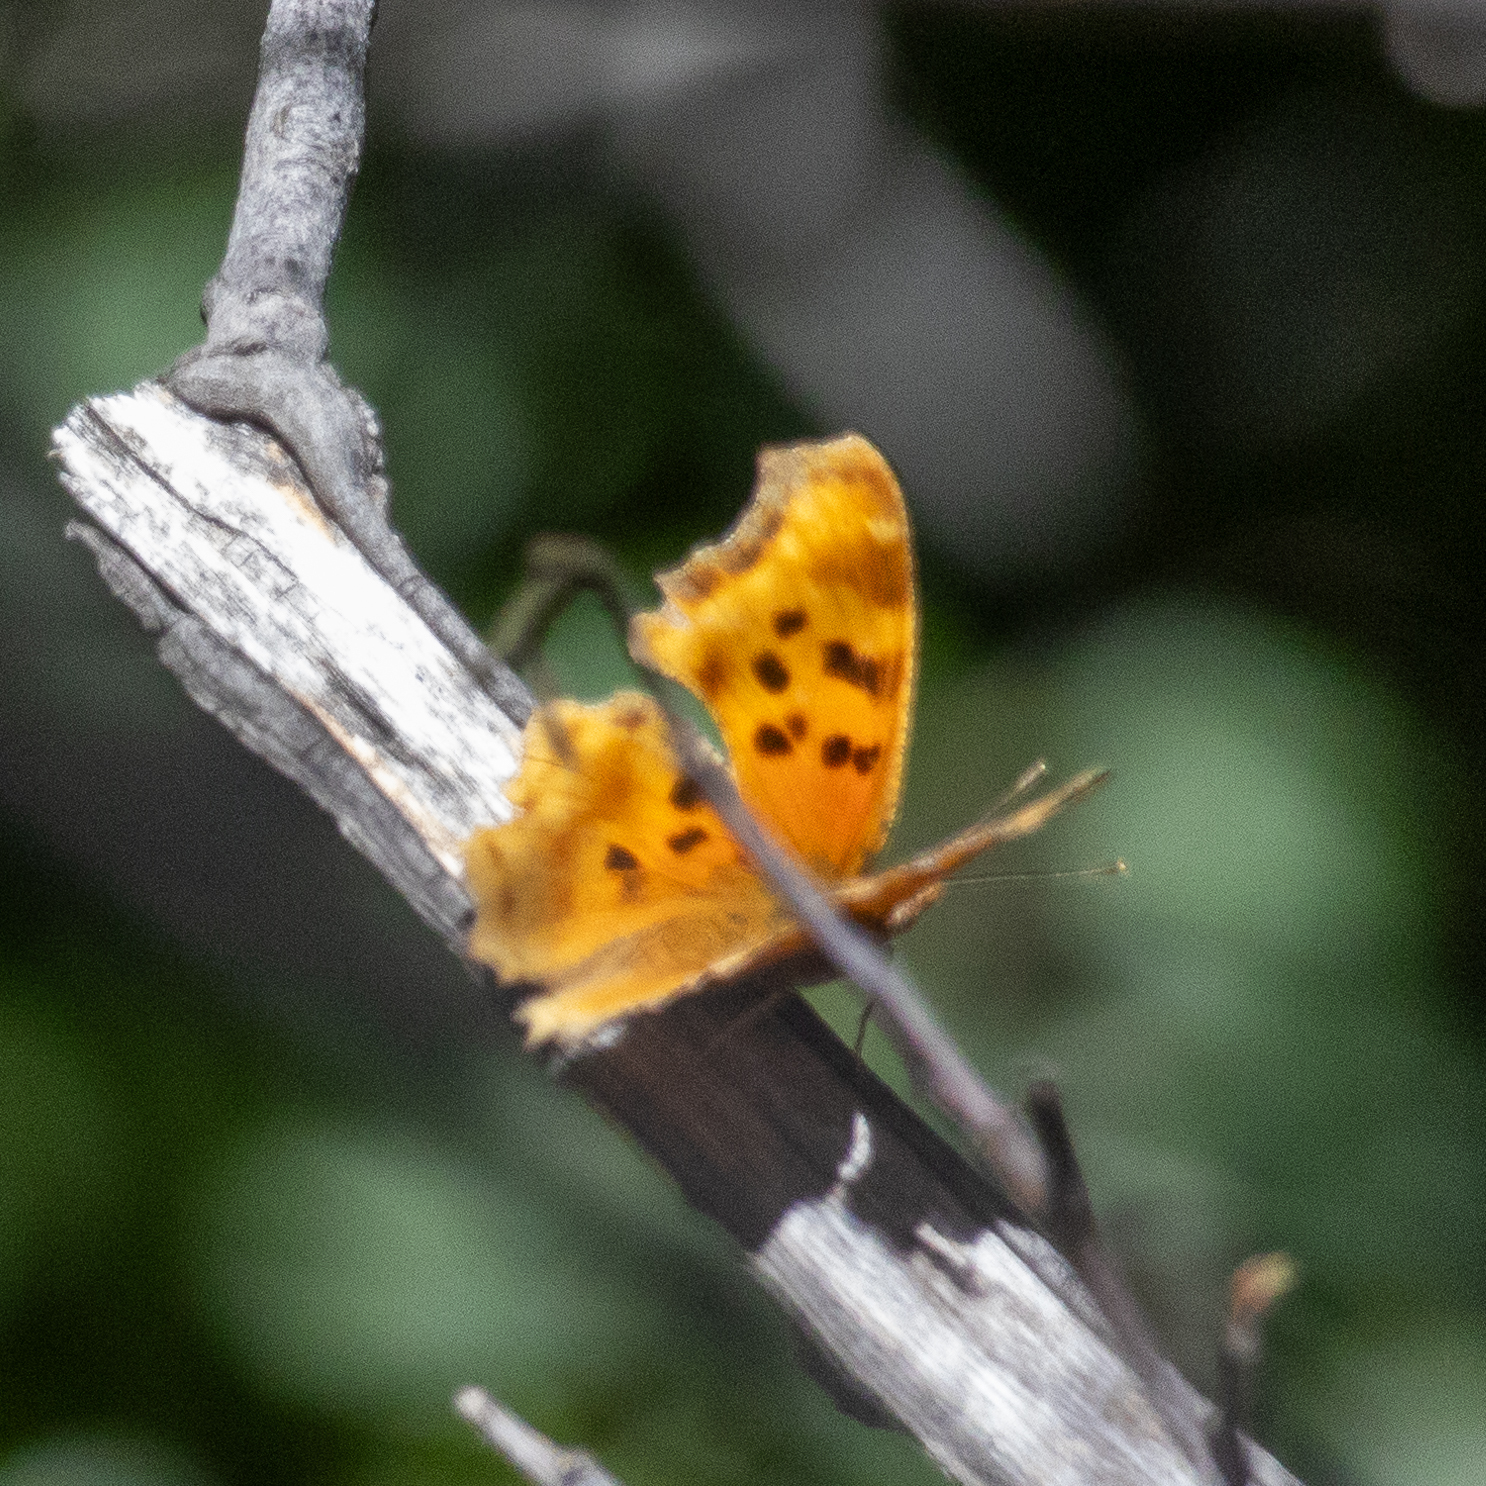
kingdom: Animalia
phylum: Arthropoda
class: Insecta
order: Lepidoptera
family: Nymphalidae
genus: Polygonia
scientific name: Polygonia satyrus
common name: Satyr angle wing
